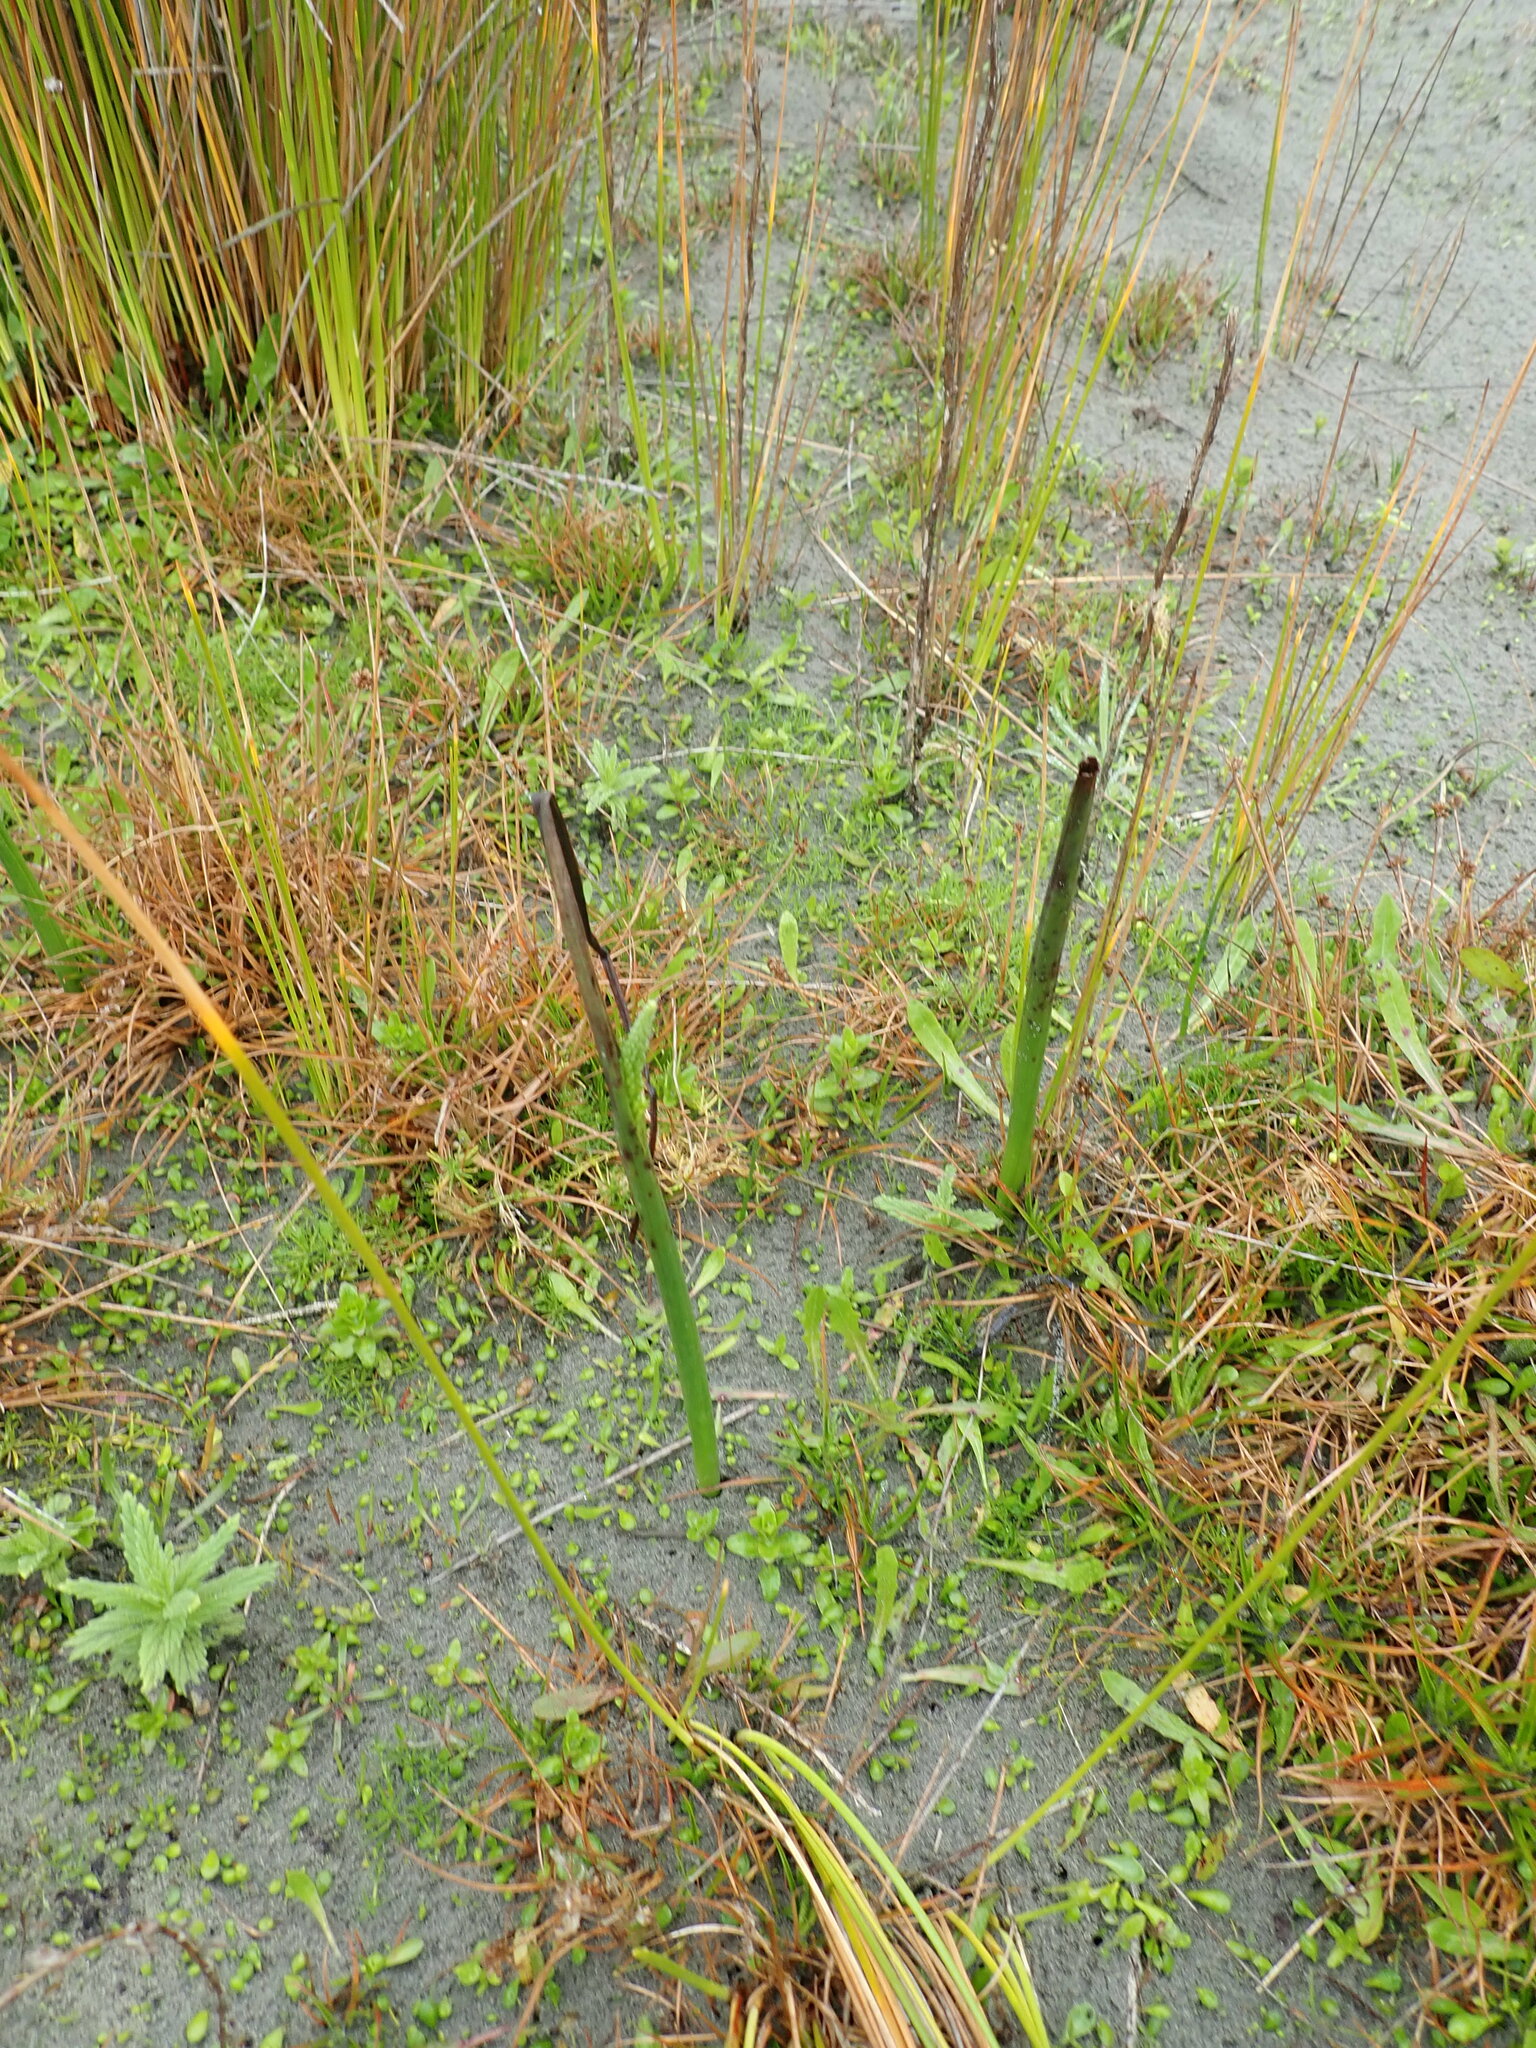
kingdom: Plantae
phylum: Tracheophyta
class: Liliopsida
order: Asparagales
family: Orchidaceae
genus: Microtis
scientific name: Microtis unifolia
